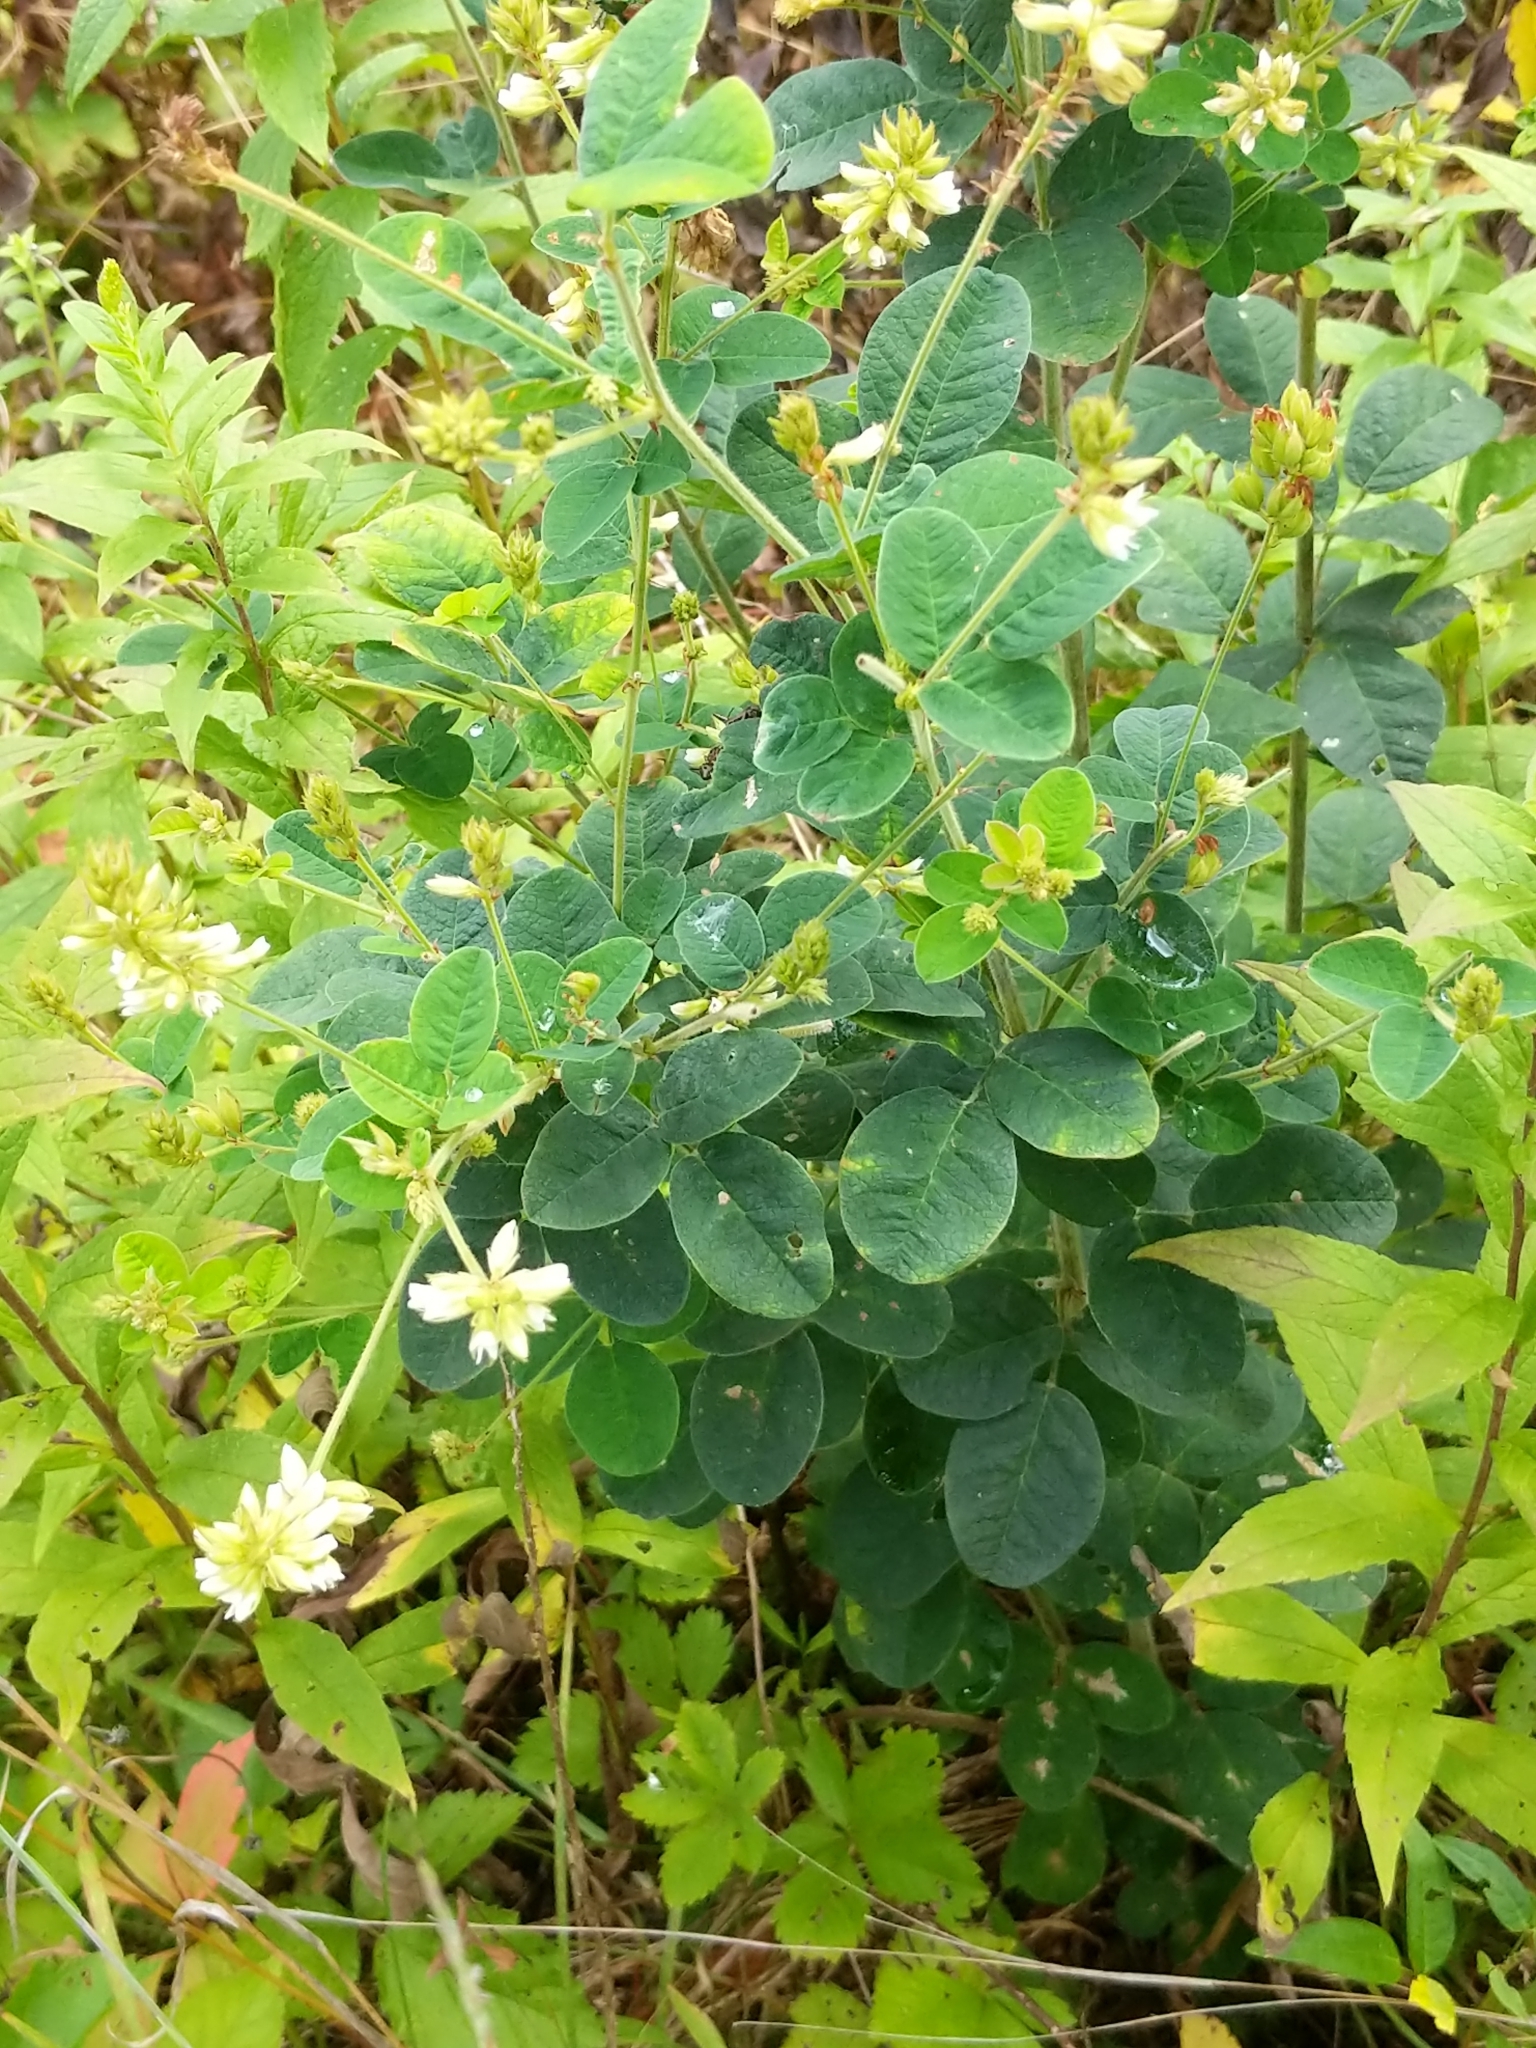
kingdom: Plantae
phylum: Tracheophyta
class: Magnoliopsida
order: Fabales
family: Fabaceae
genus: Lespedeza
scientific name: Lespedeza hirta
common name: Hairy lespedeza
